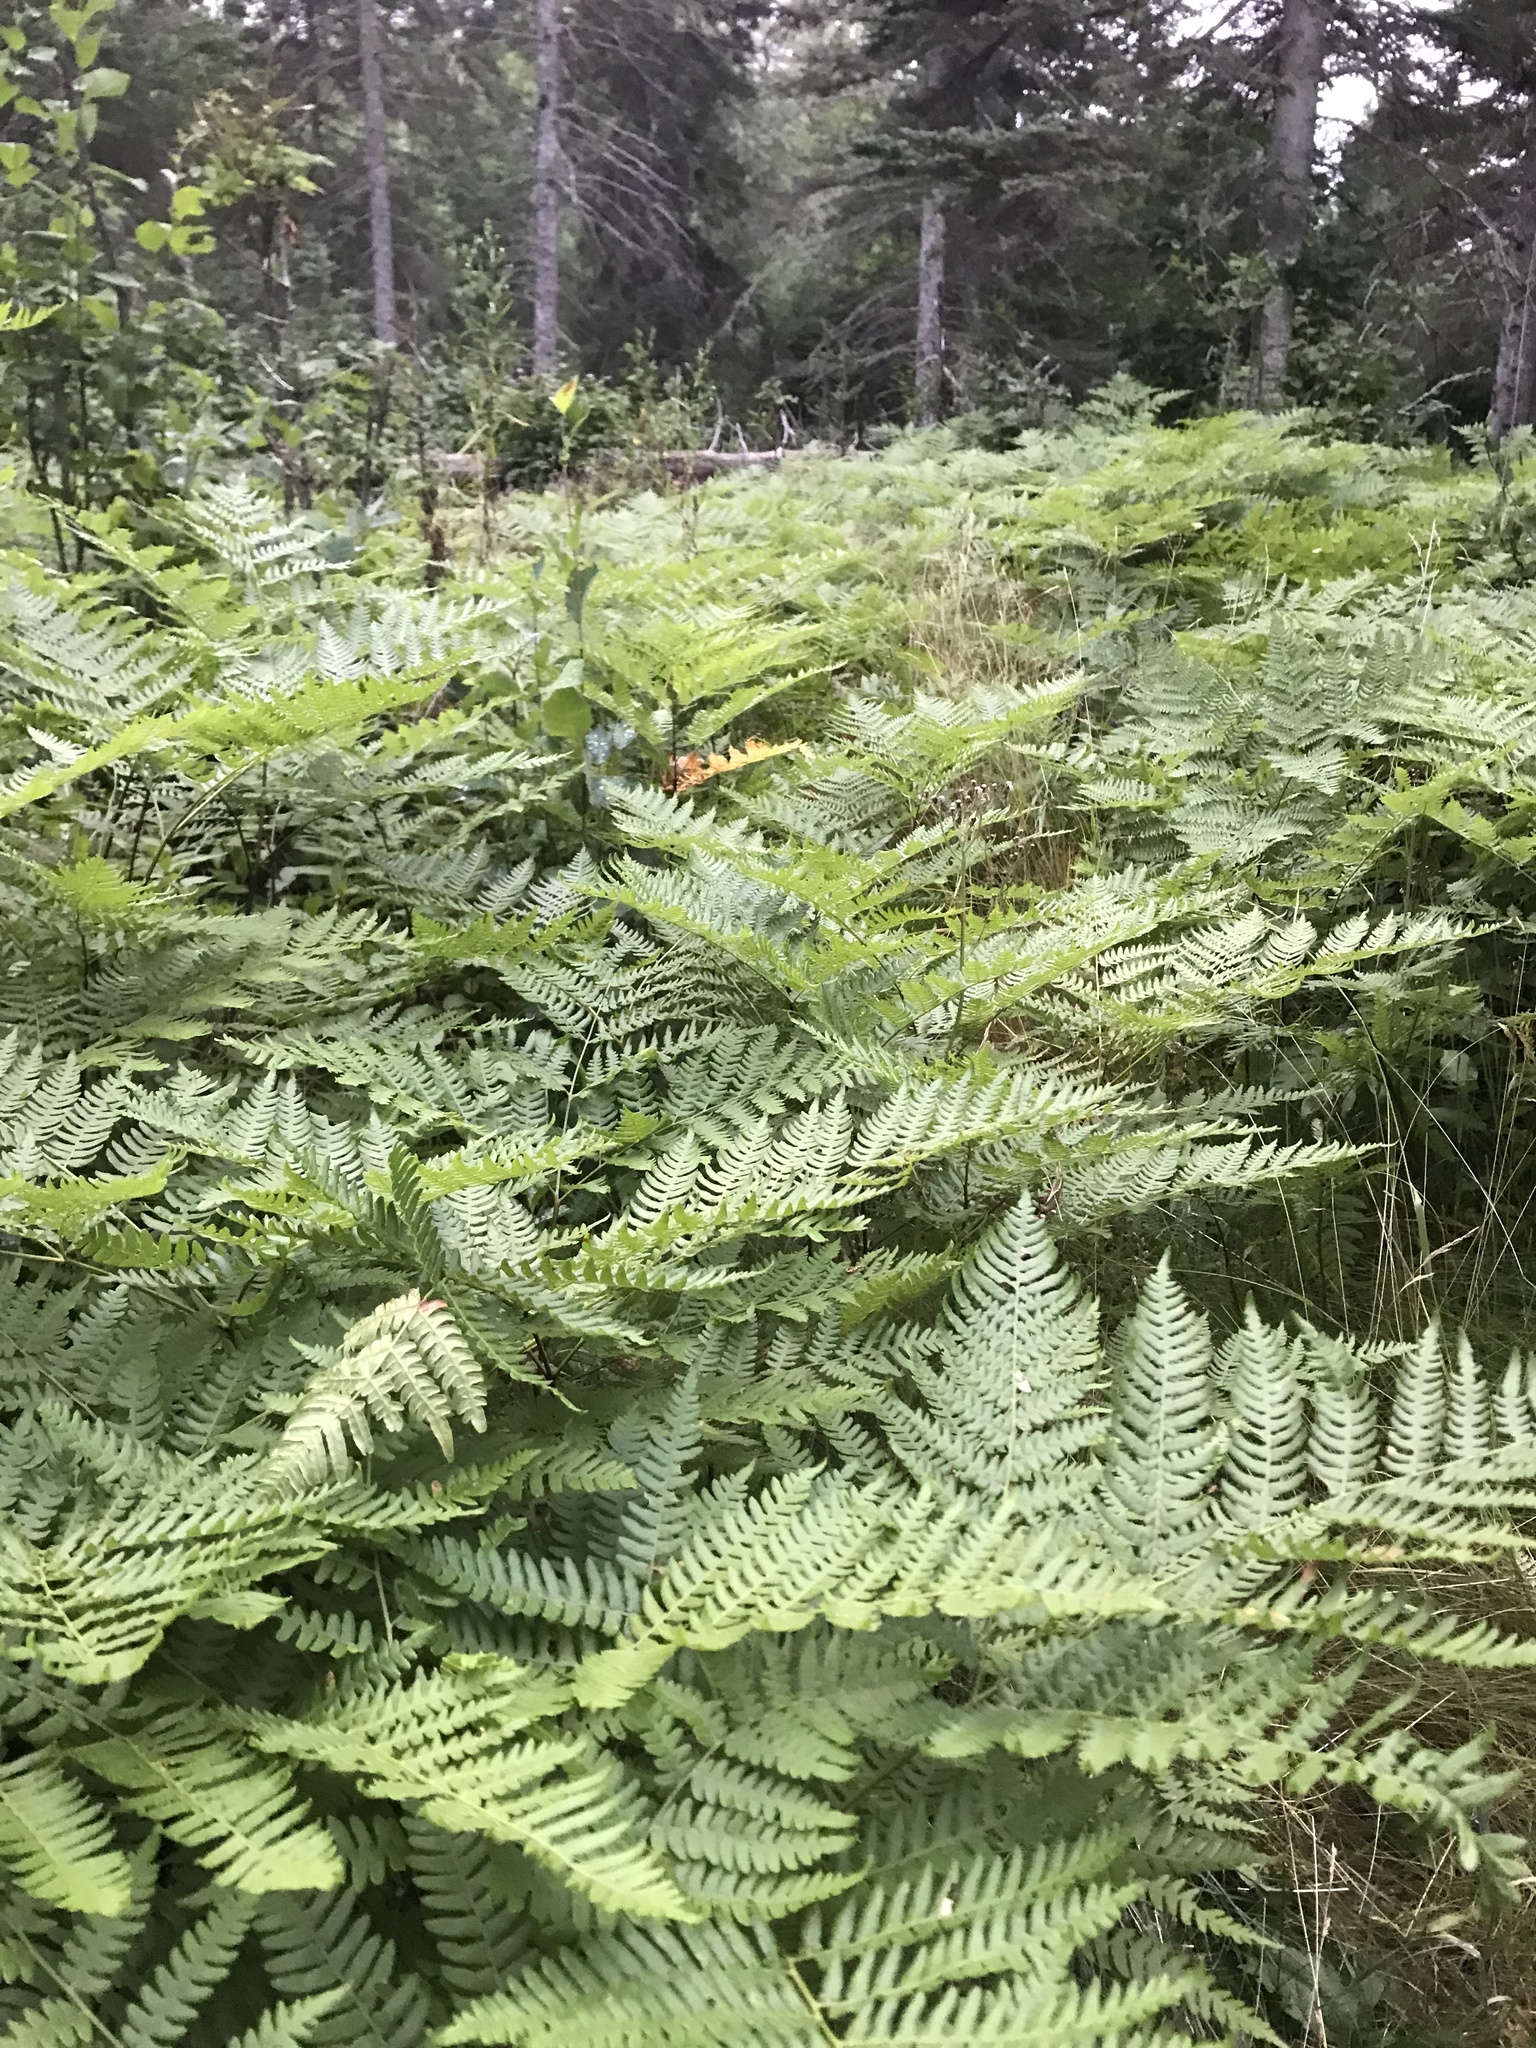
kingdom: Plantae
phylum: Tracheophyta
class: Polypodiopsida
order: Osmundales
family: Osmundaceae
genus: Claytosmunda
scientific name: Claytosmunda claytoniana
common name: Clayton's fern
